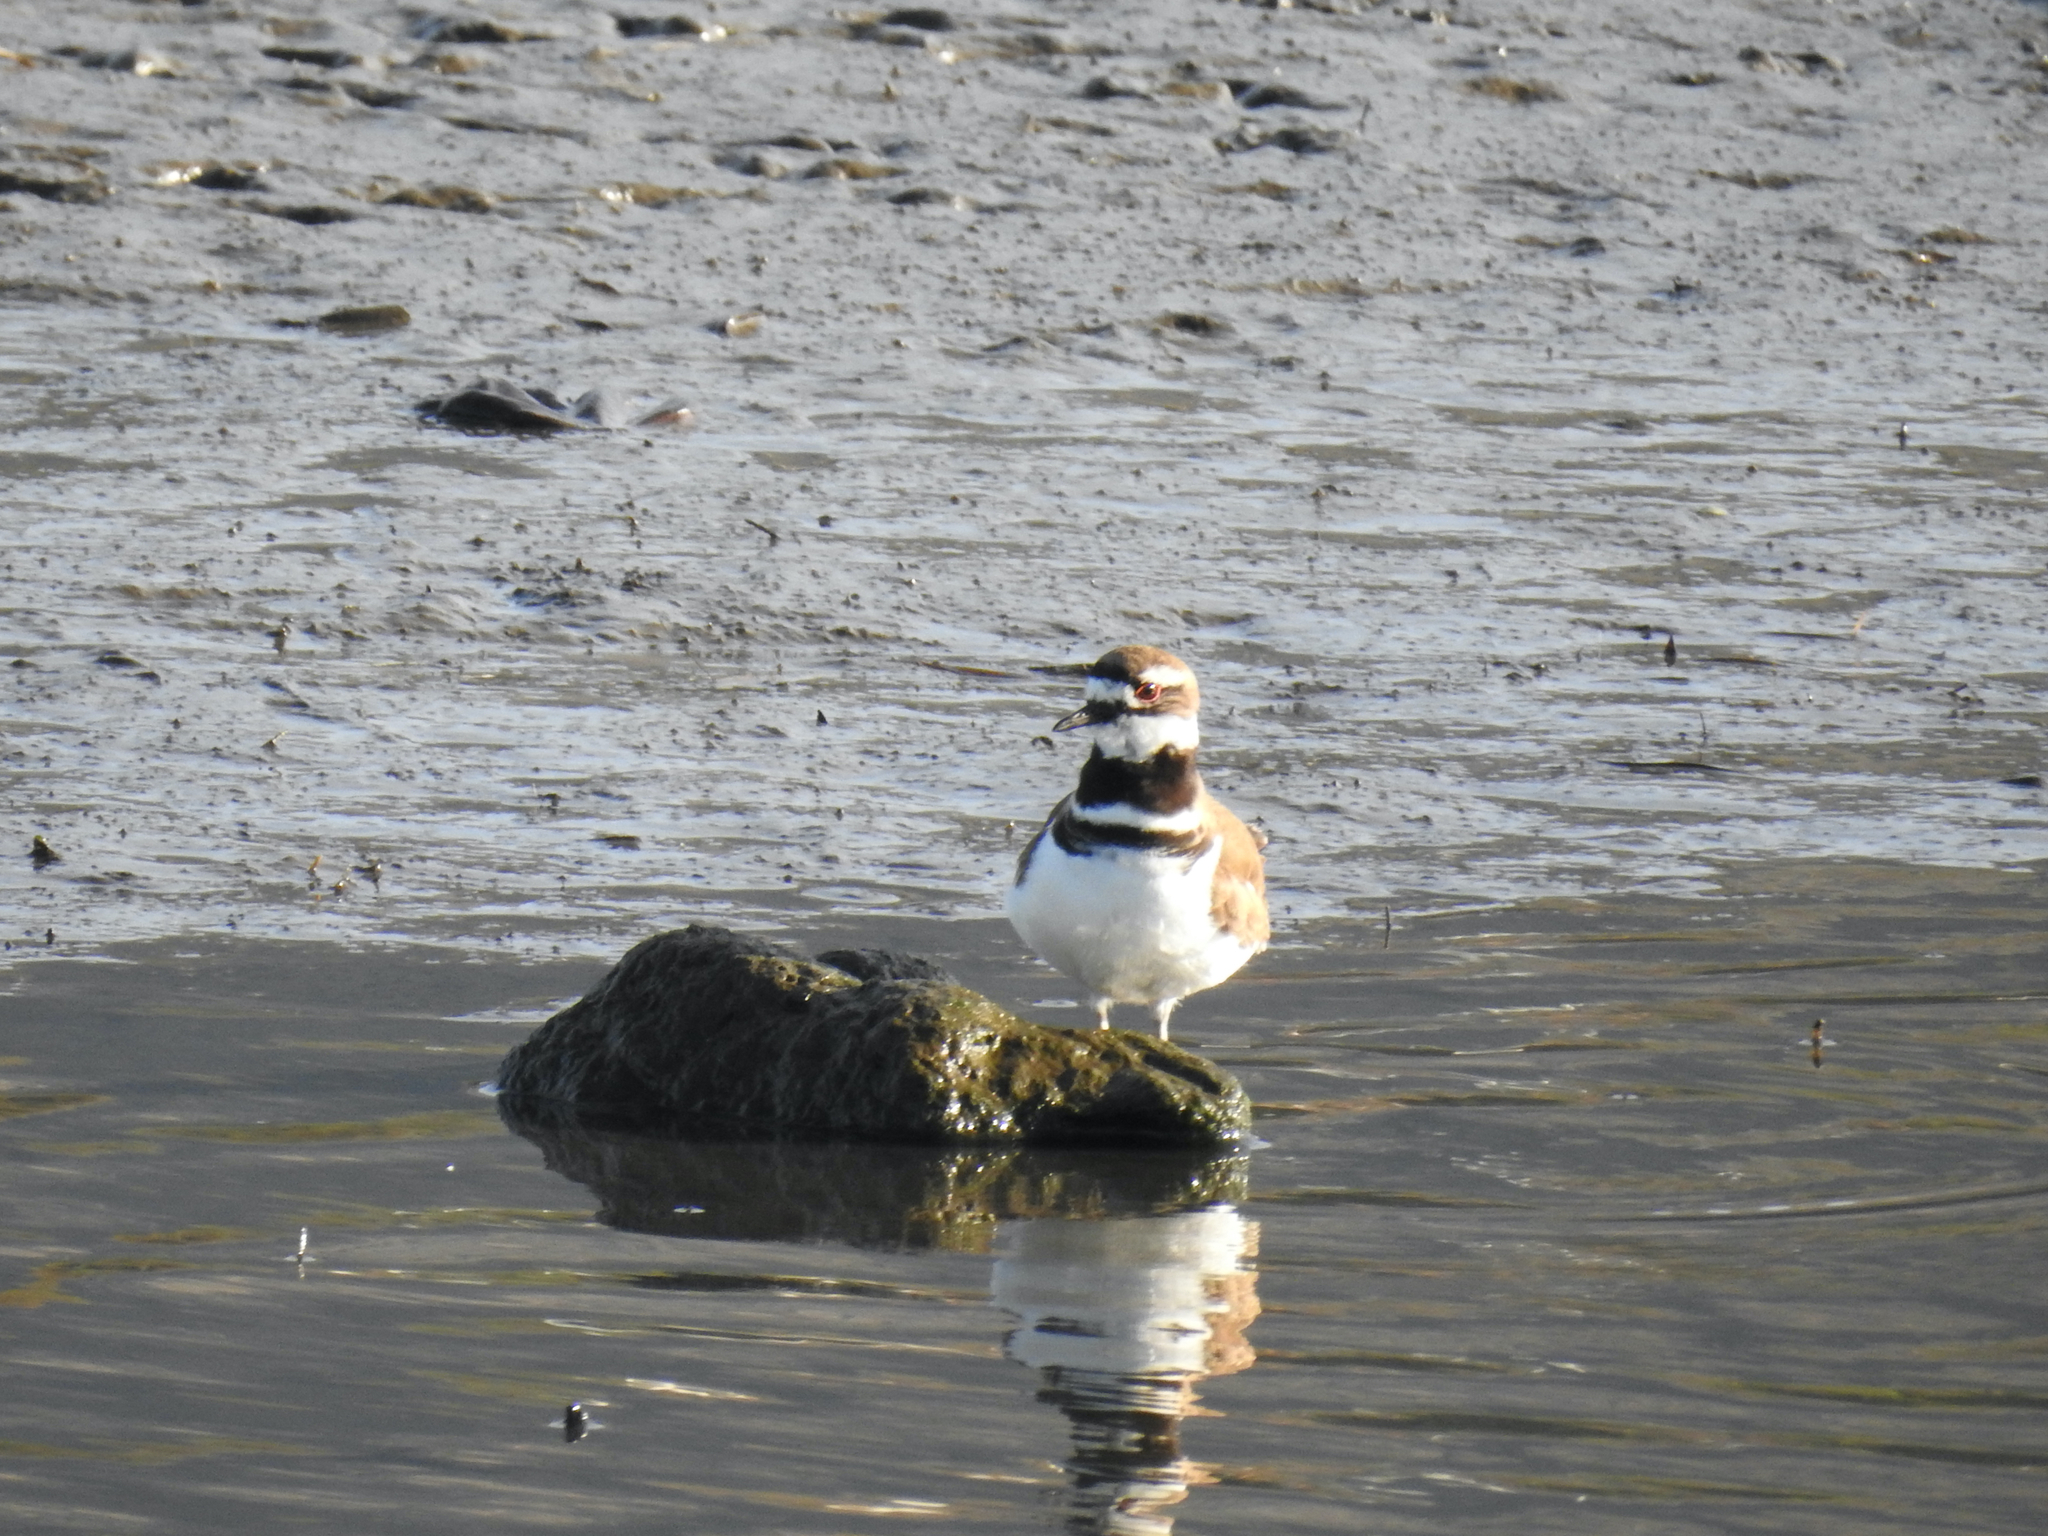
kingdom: Animalia
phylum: Chordata
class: Aves
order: Charadriiformes
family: Charadriidae
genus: Charadrius
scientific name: Charadrius vociferus
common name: Killdeer
